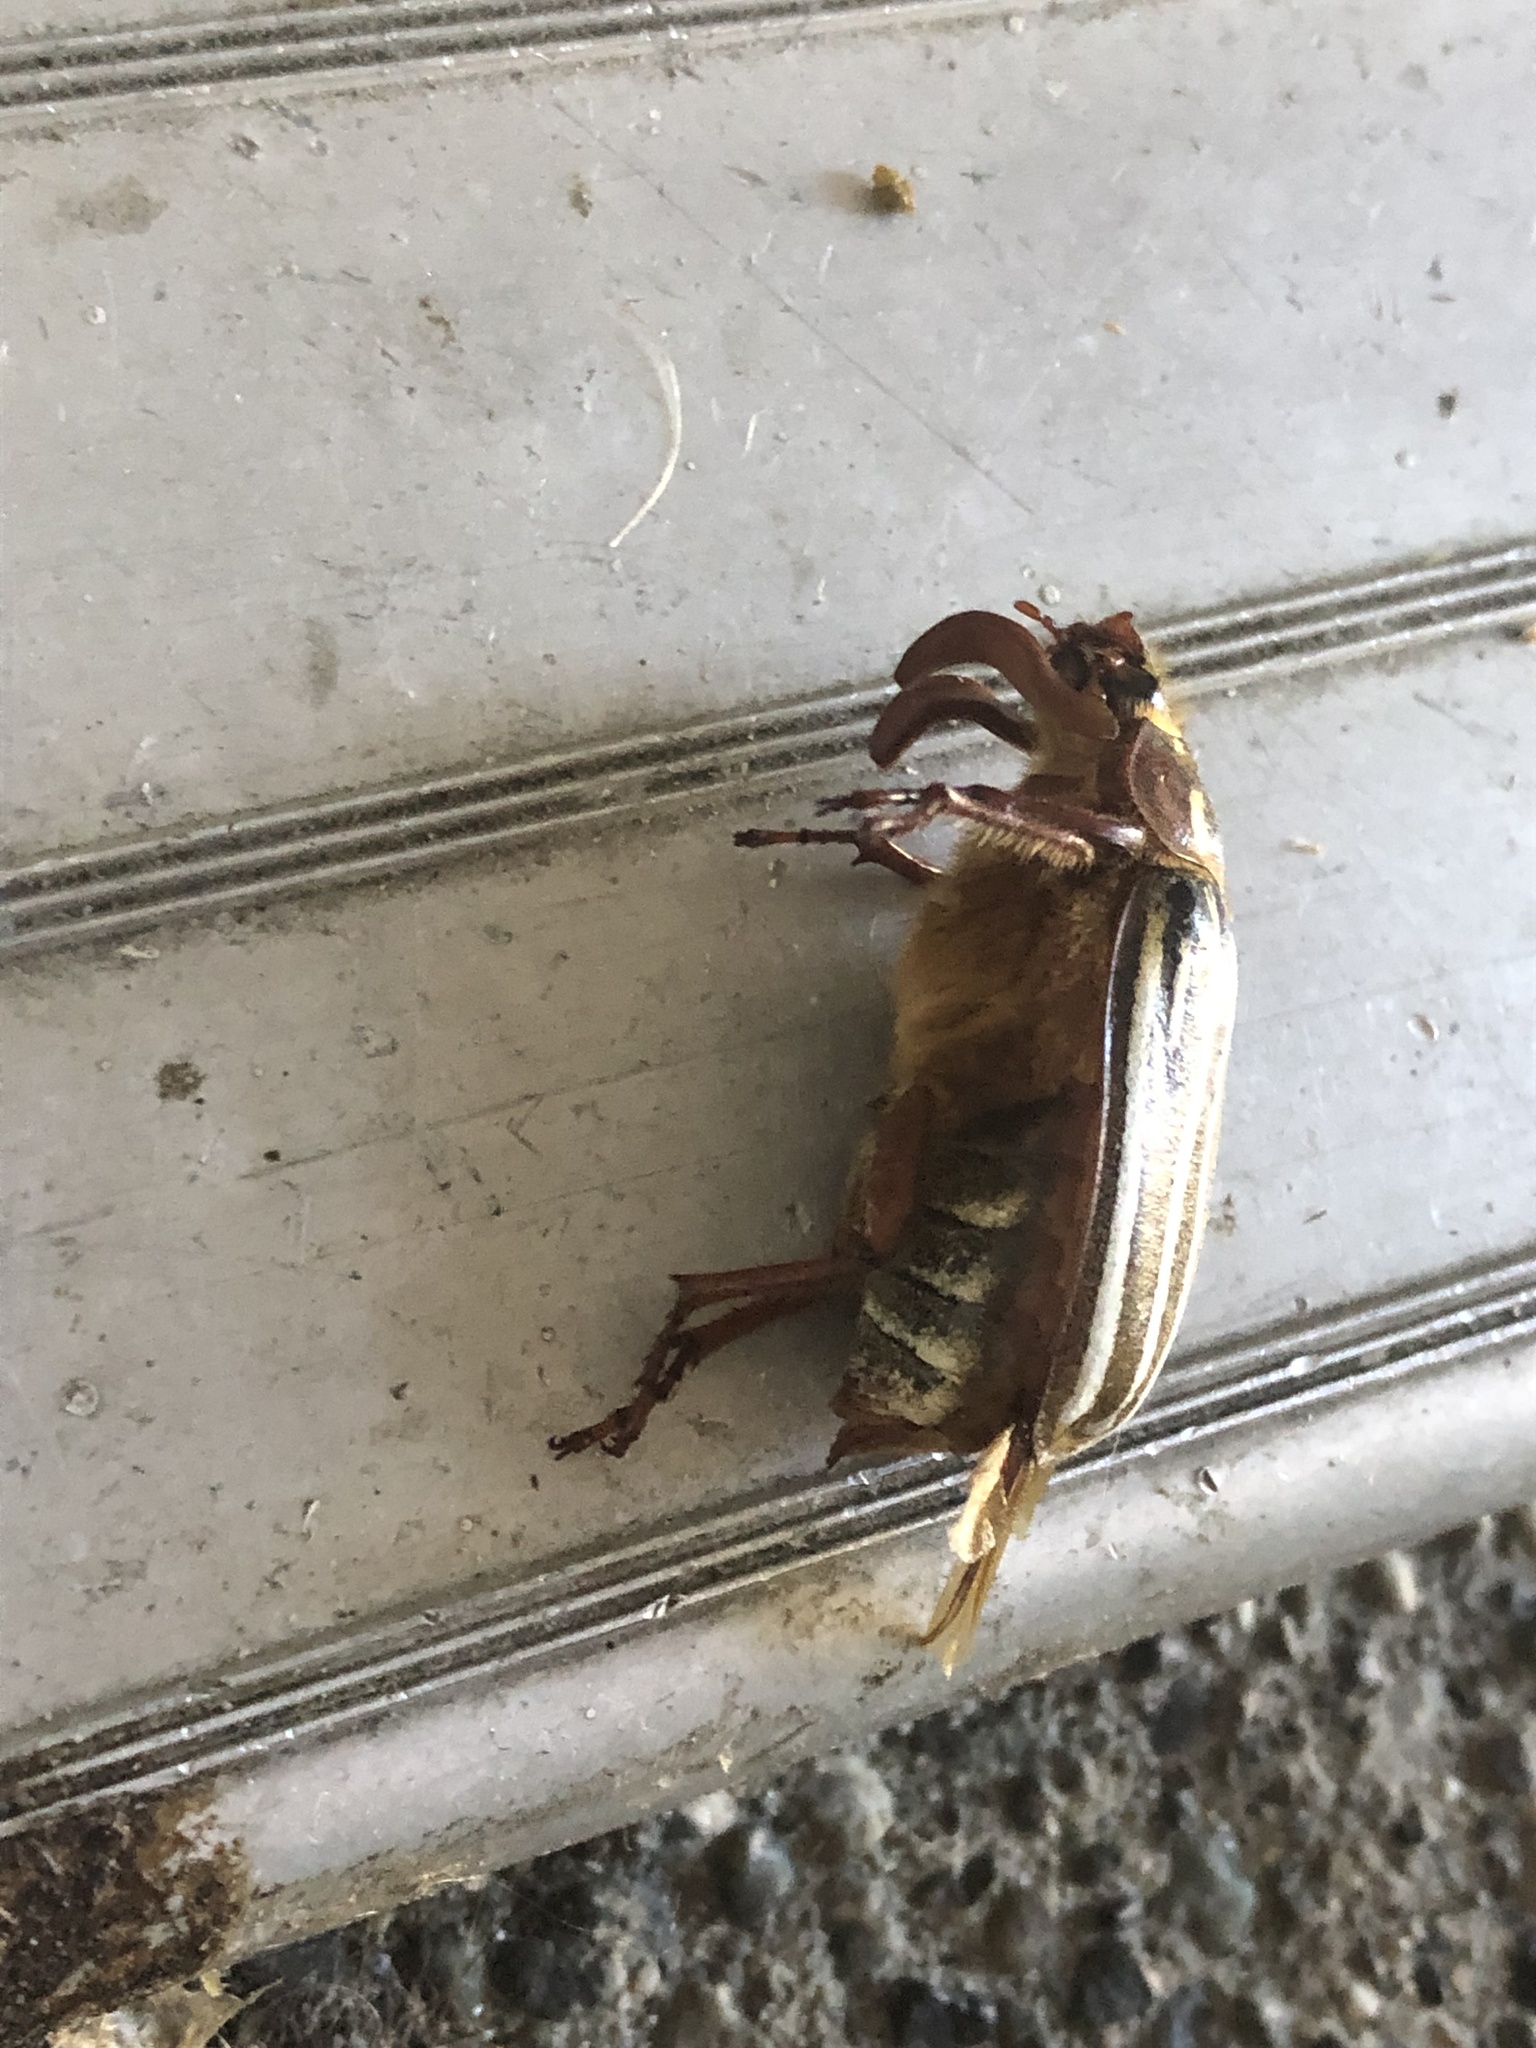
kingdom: Animalia
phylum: Arthropoda
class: Insecta
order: Coleoptera
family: Scarabaeidae
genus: Polyphylla
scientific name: Polyphylla crinita
